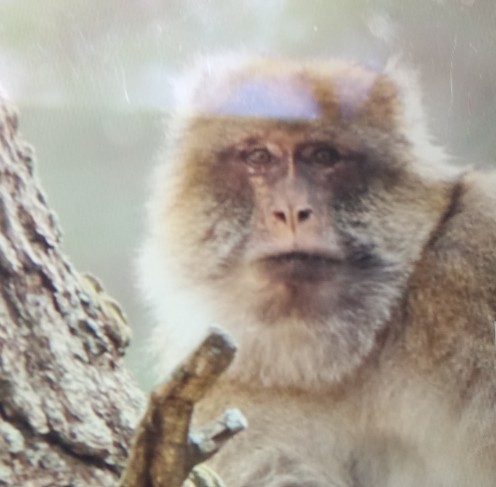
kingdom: Animalia
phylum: Chordata
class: Mammalia
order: Primates
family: Cercopithecidae
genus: Macaca
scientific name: Macaca sylvanus
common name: Barbary macaque
